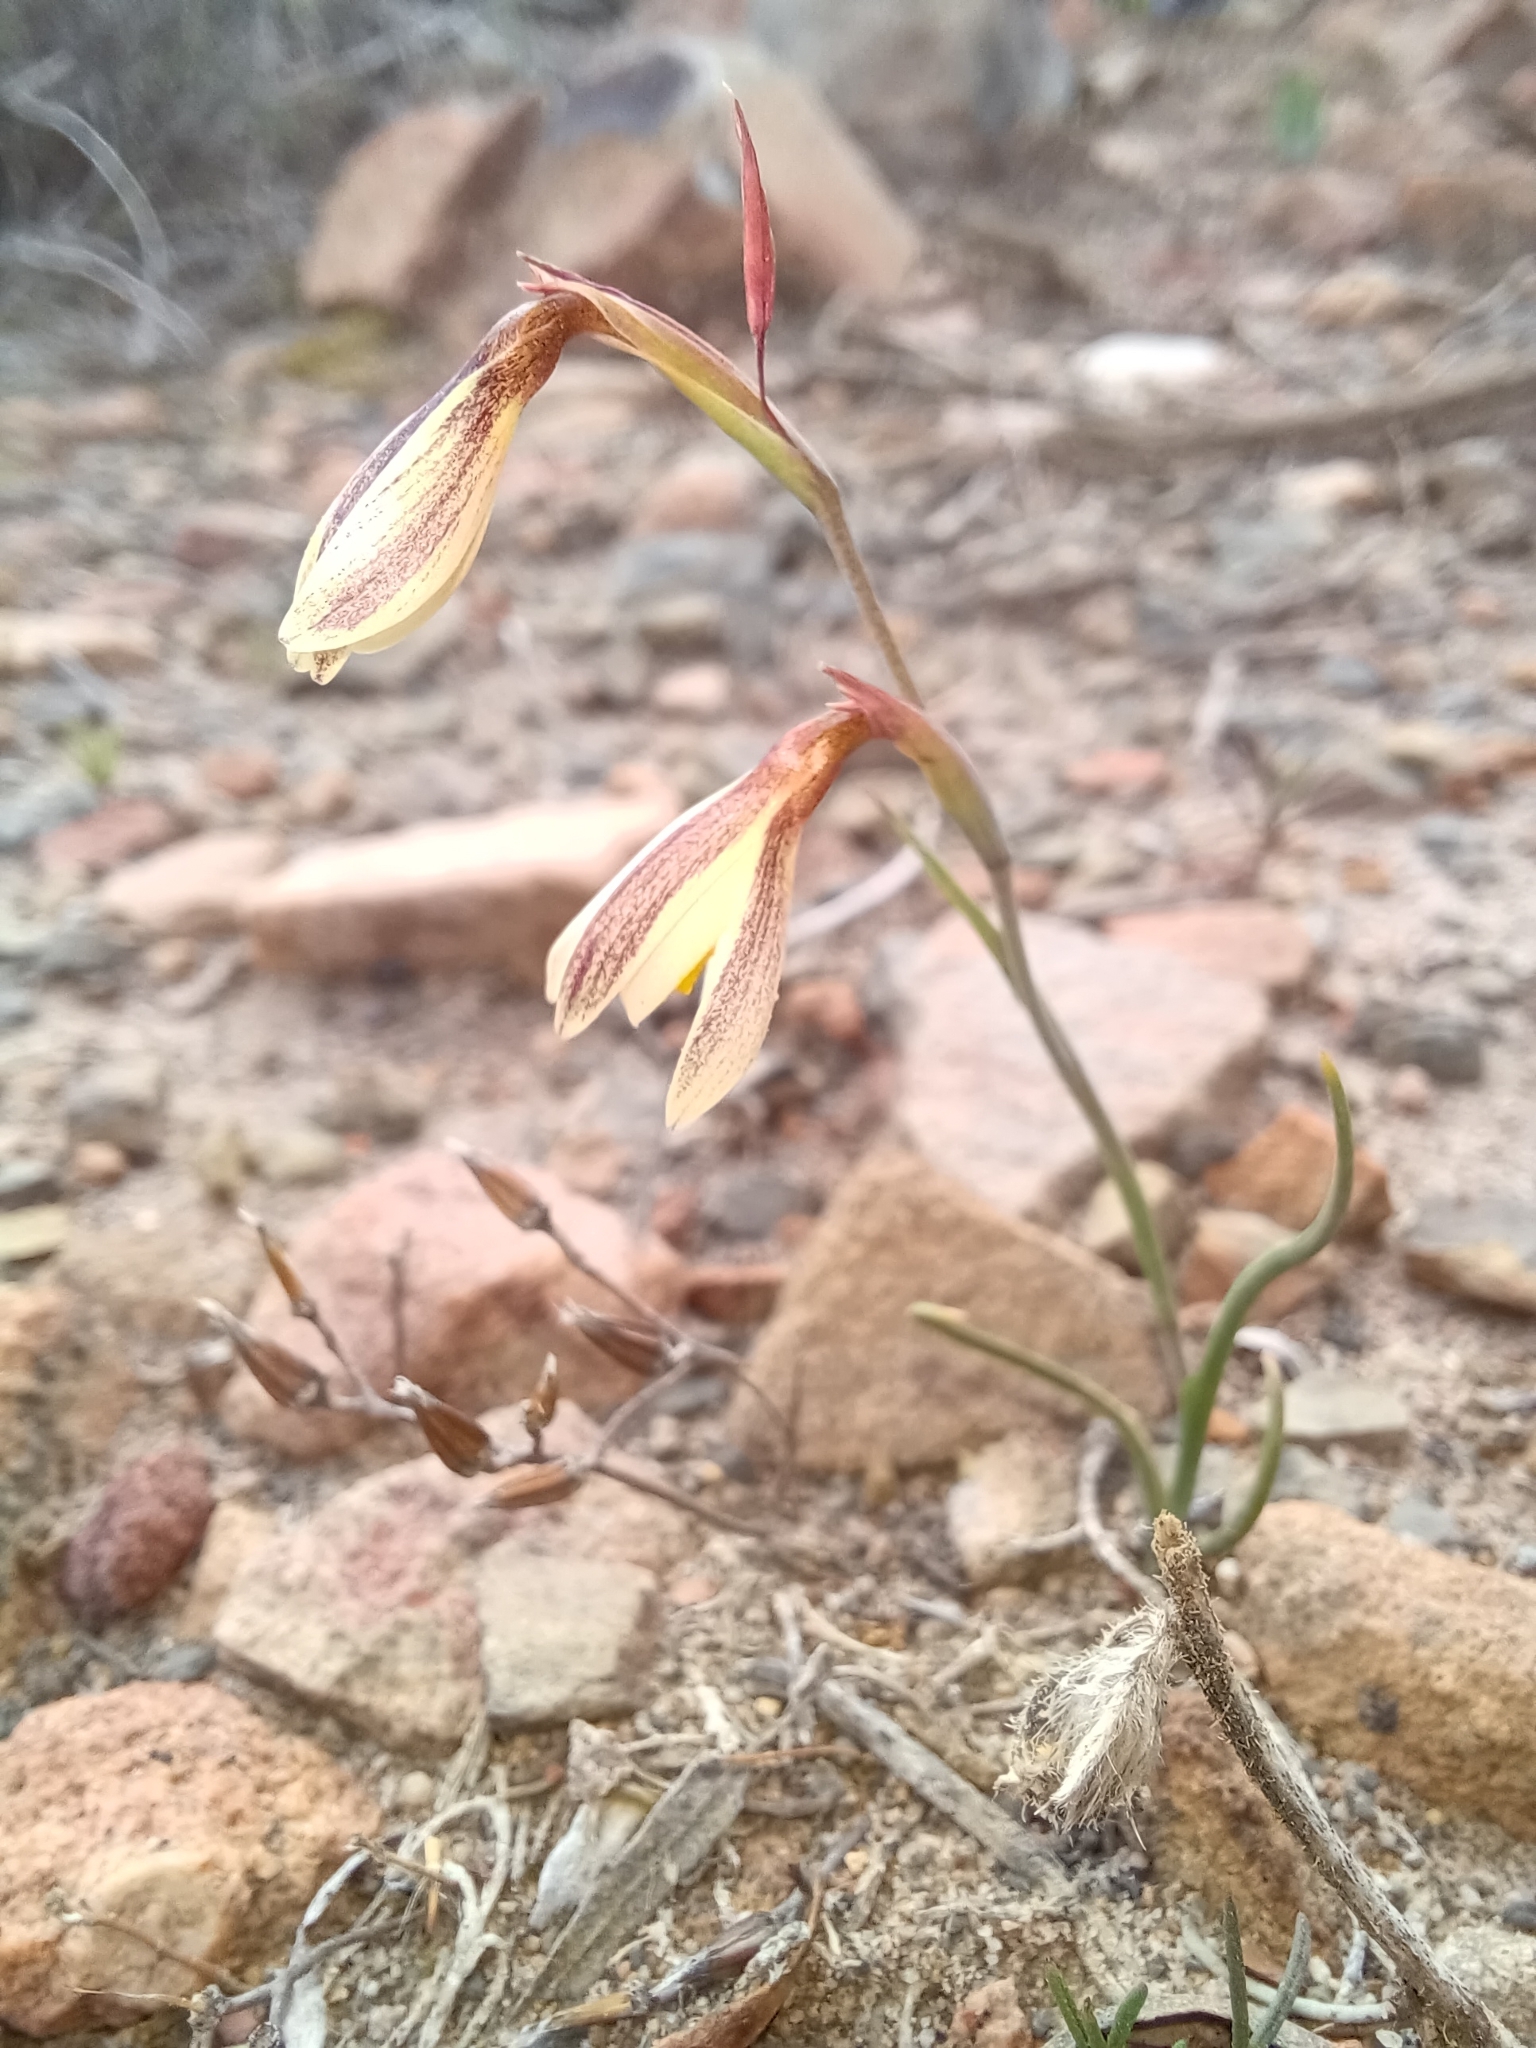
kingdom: Plantae
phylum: Tracheophyta
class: Liliopsida
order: Asparagales
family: Iridaceae
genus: Hesperantha
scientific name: Hesperantha radiata
